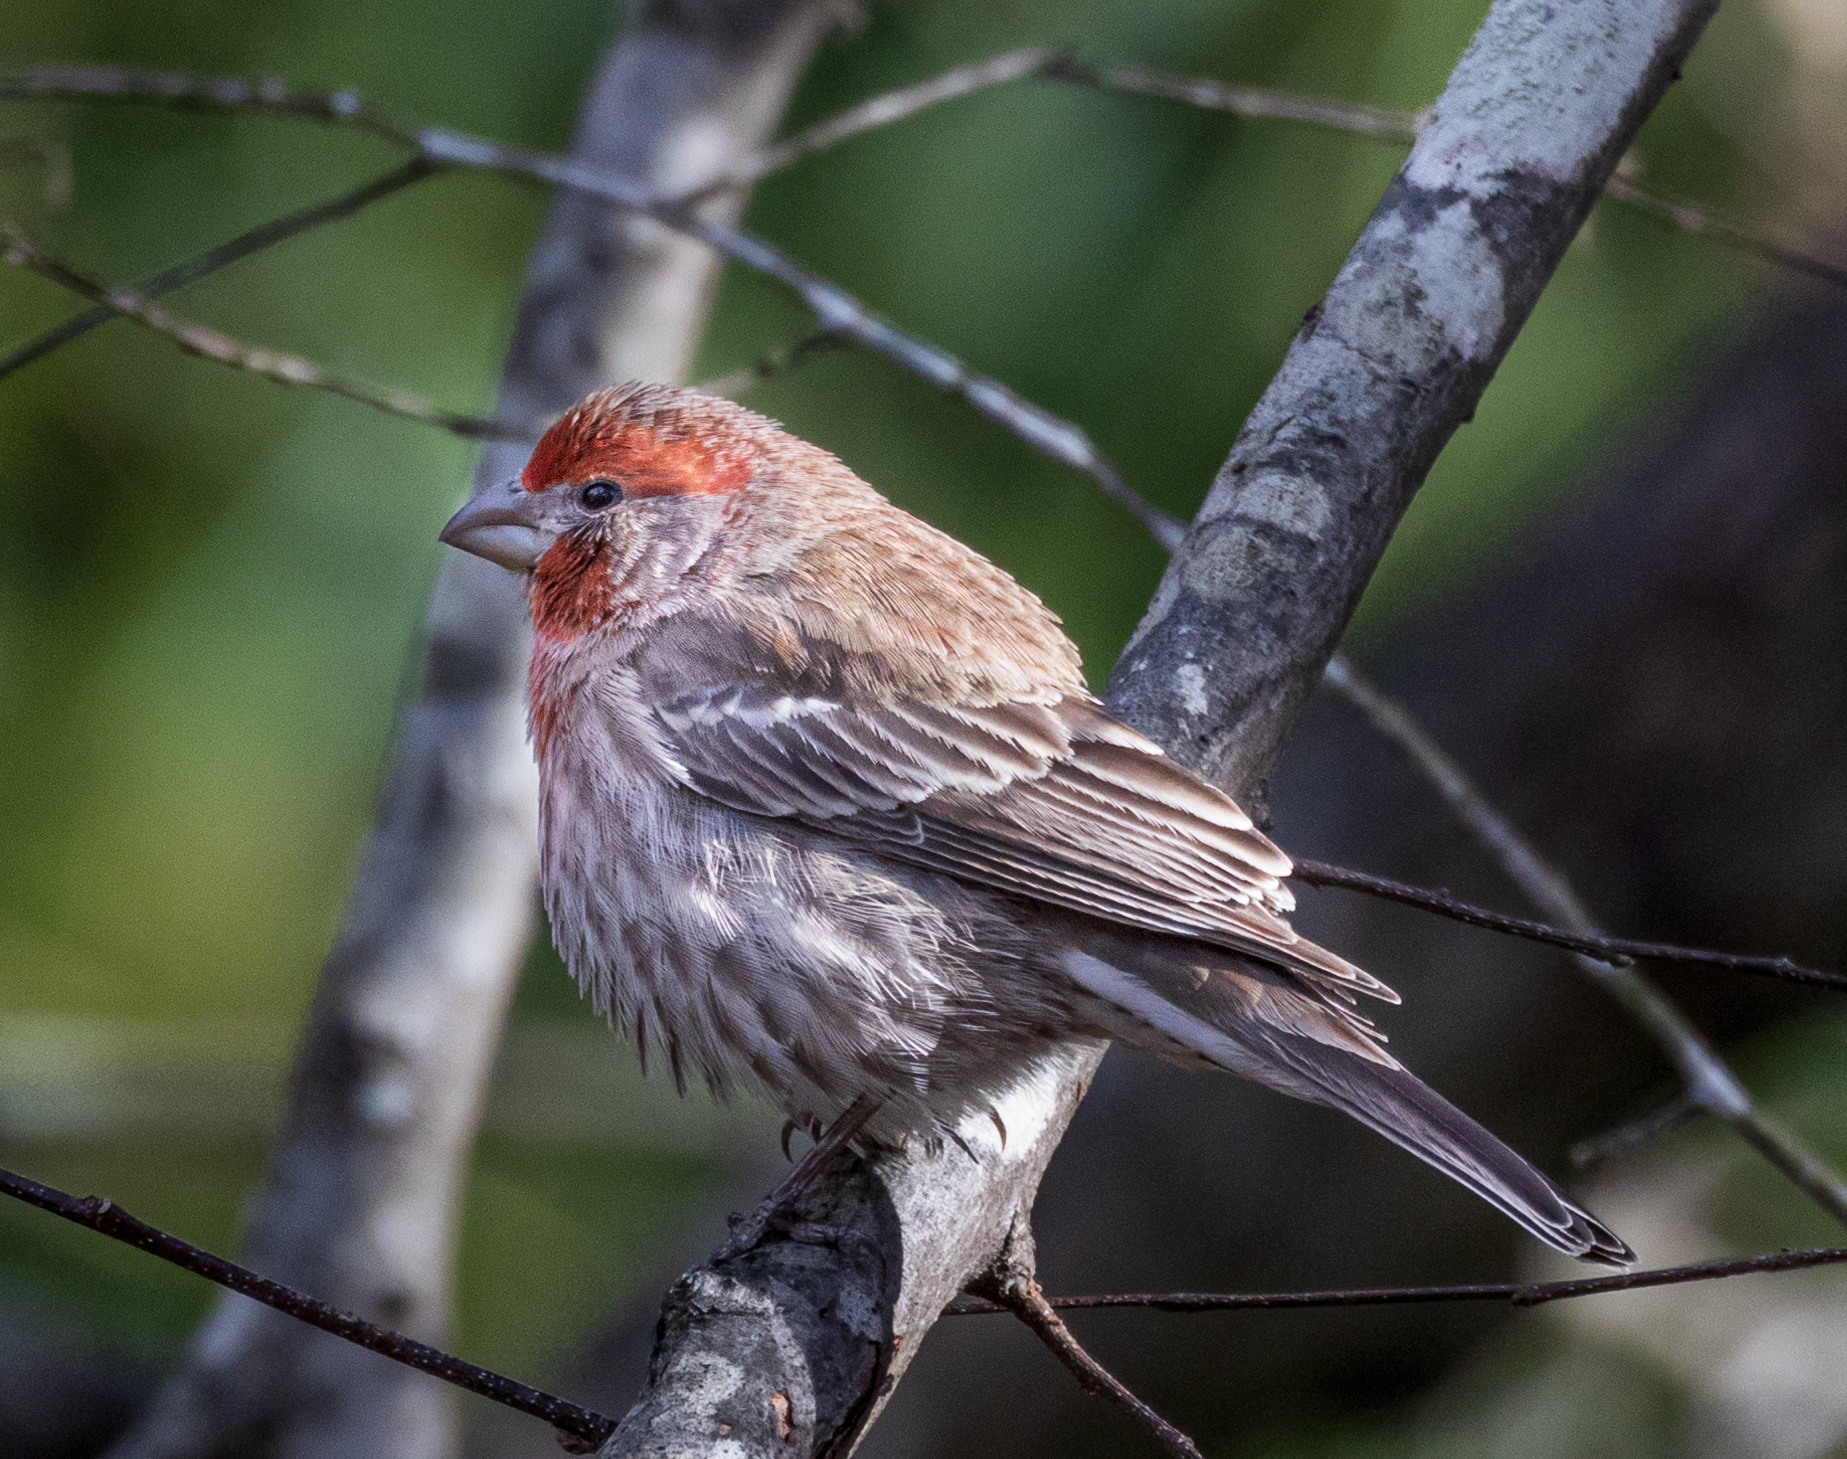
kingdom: Animalia
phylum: Chordata
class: Aves
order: Passeriformes
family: Fringillidae
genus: Haemorhous
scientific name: Haemorhous mexicanus
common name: House finch
